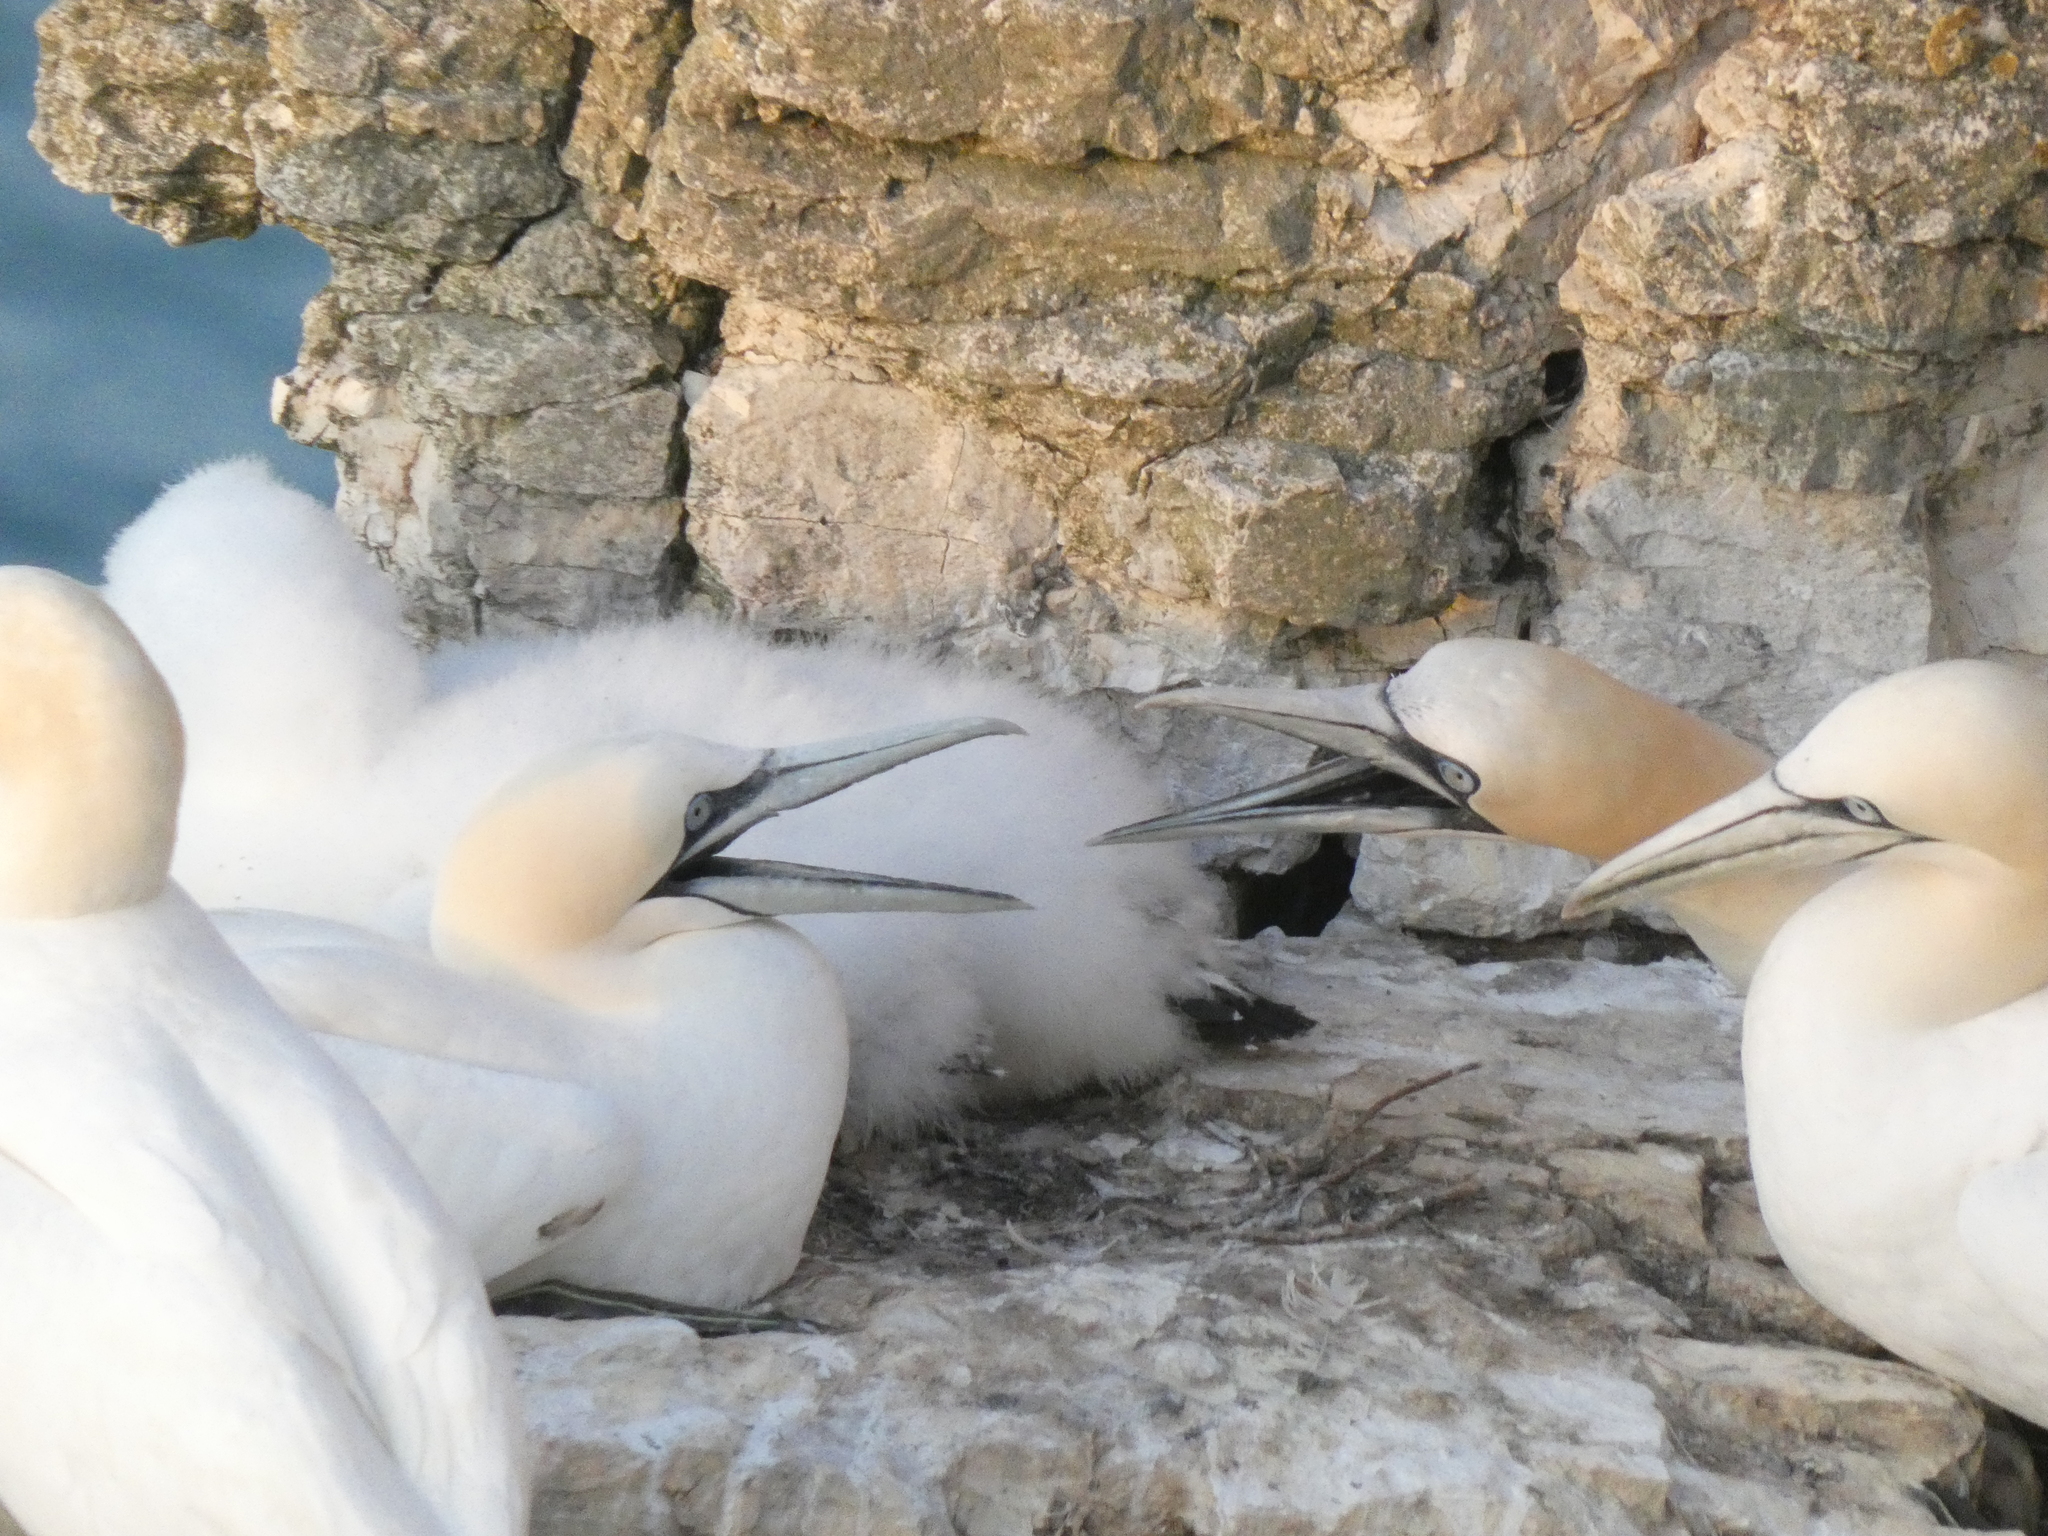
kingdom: Animalia
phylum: Chordata
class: Aves
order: Suliformes
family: Sulidae
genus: Morus
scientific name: Morus bassanus
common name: Northern gannet
